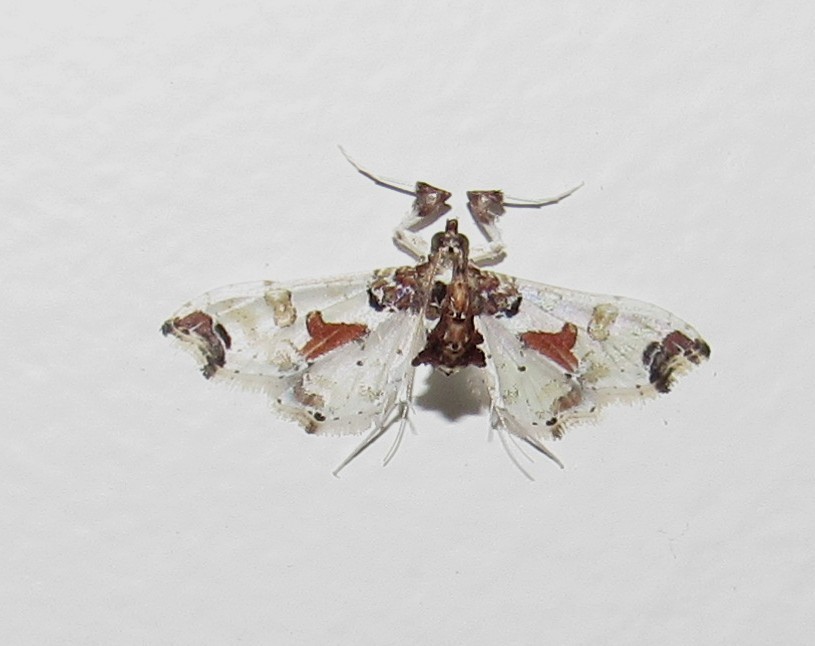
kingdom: Animalia
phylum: Arthropoda
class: Insecta
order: Lepidoptera
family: Crambidae
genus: Neoleucinodes
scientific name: Neoleucinodes elegantalis
